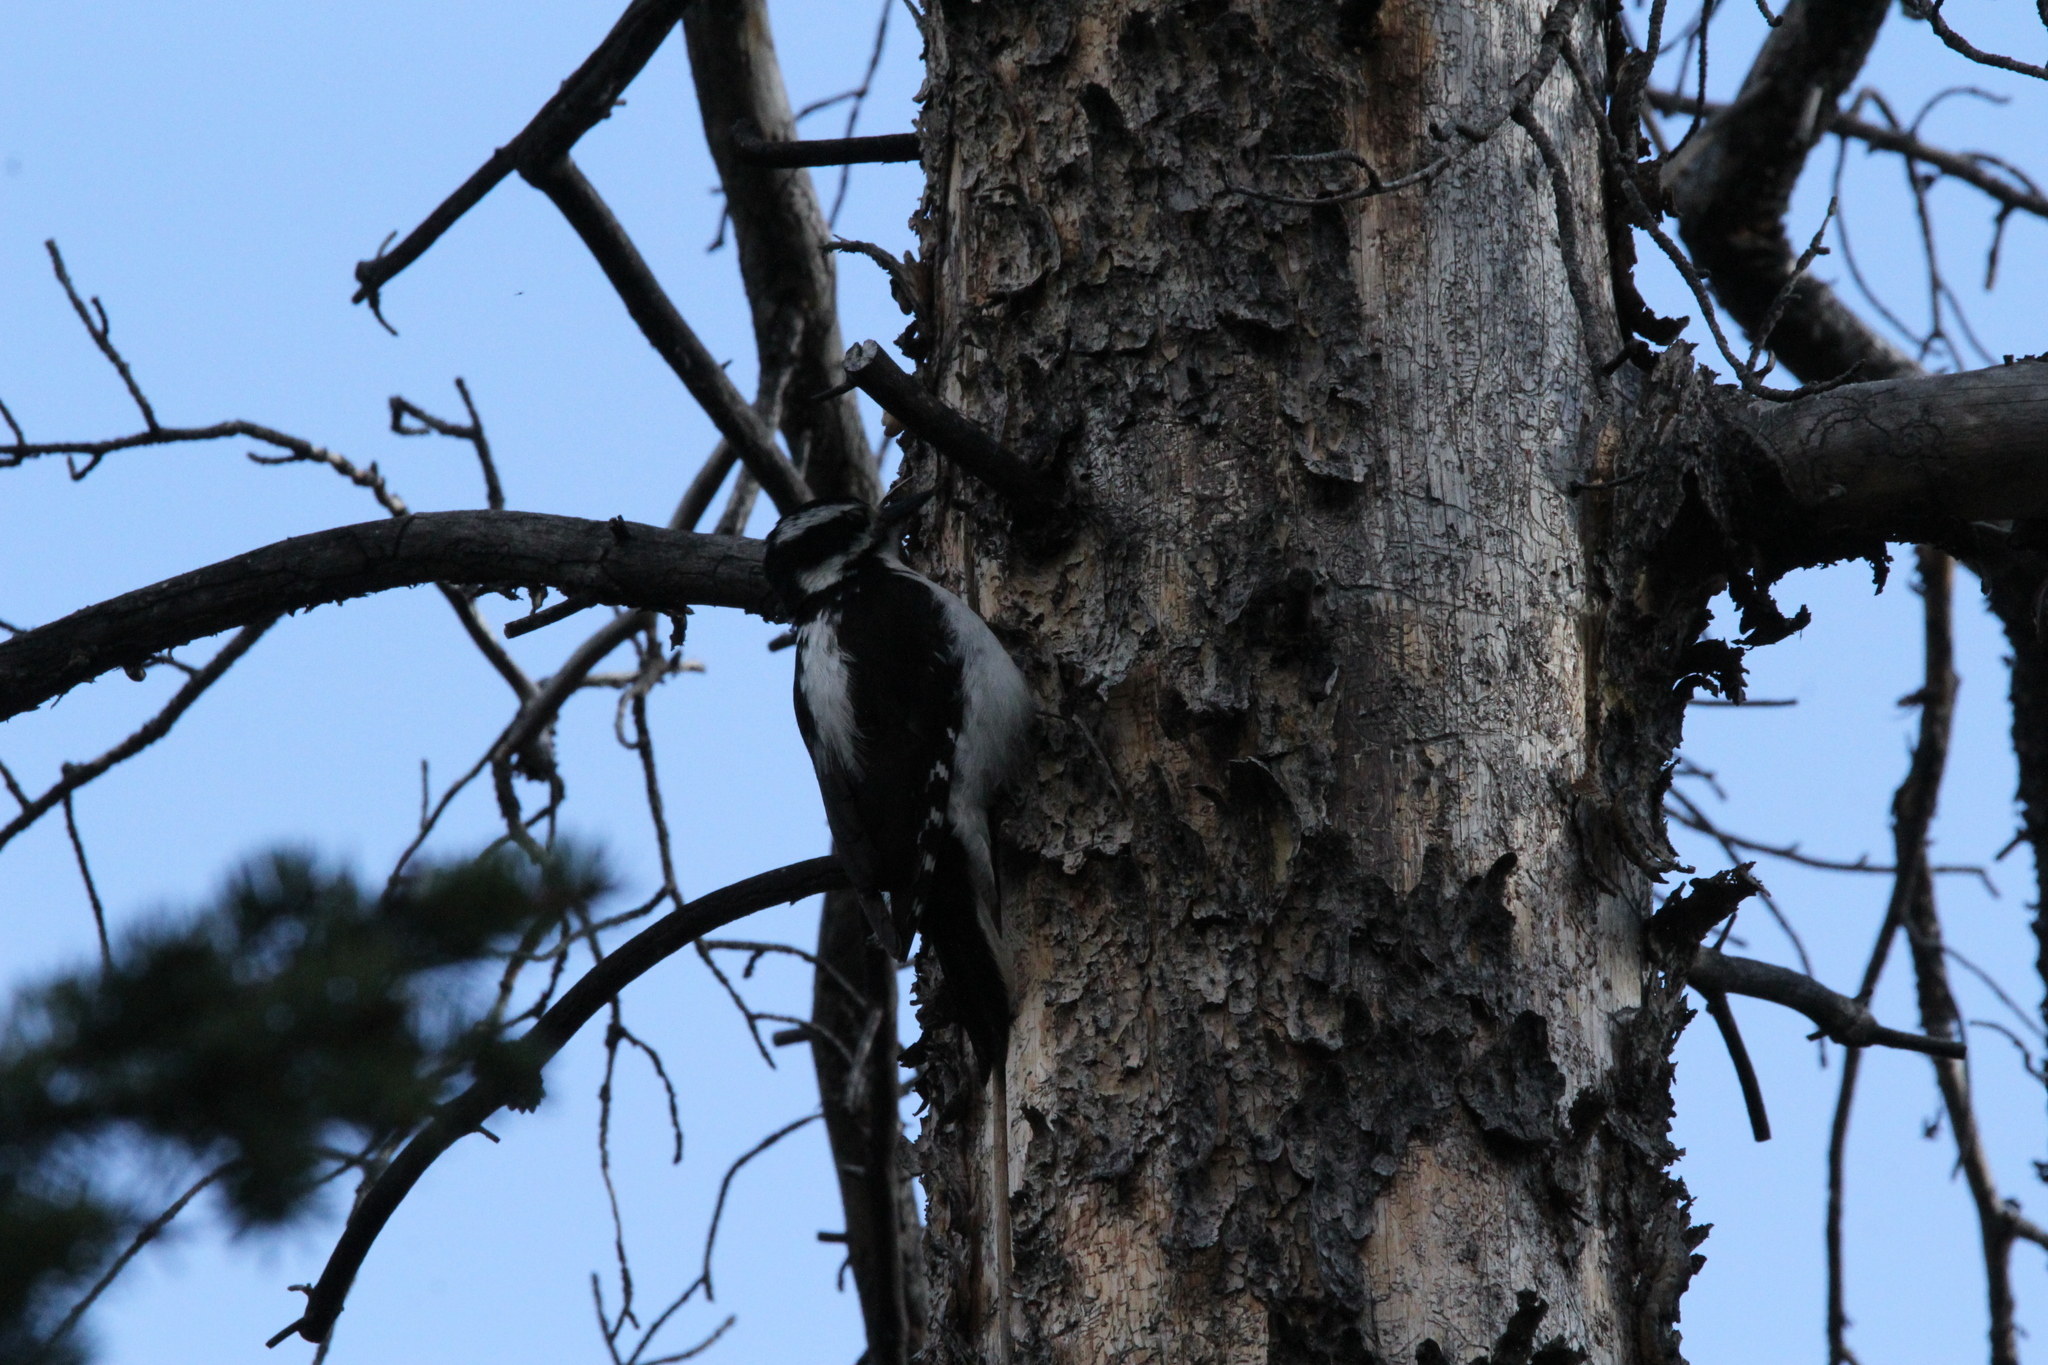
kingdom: Animalia
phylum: Chordata
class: Aves
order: Piciformes
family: Picidae
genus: Leuconotopicus
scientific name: Leuconotopicus villosus
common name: Hairy woodpecker
